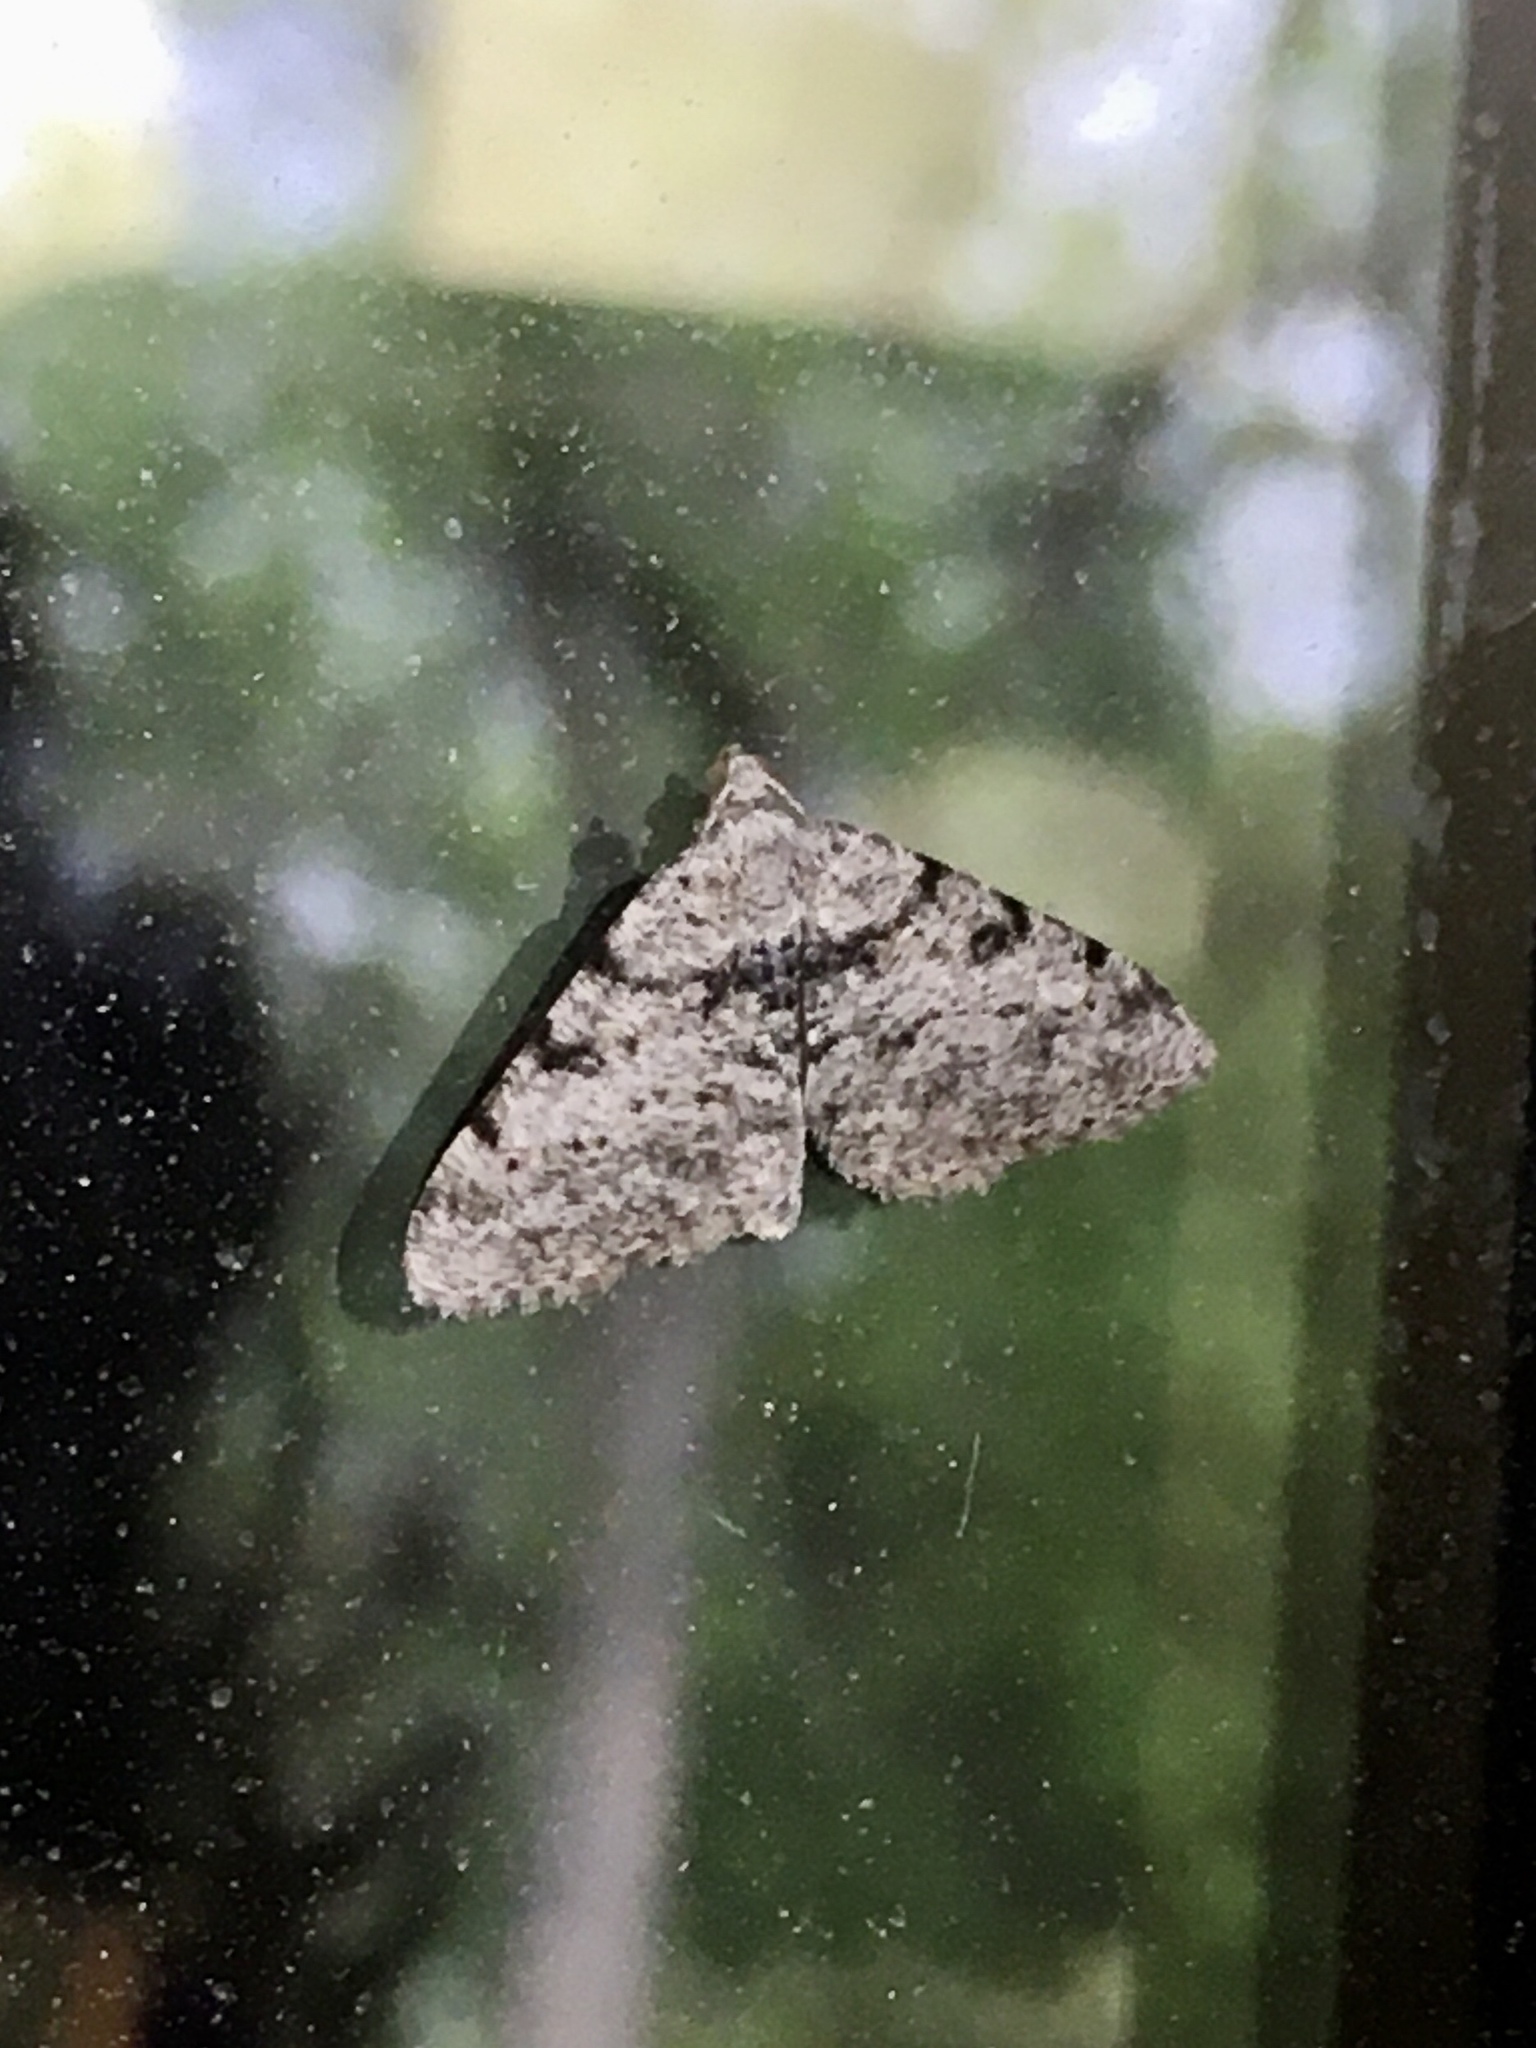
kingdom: Animalia
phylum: Arthropoda
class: Insecta
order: Lepidoptera
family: Geometridae
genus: Digrammia
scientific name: Digrammia gnophosaria
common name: Hollow-spotted angle
